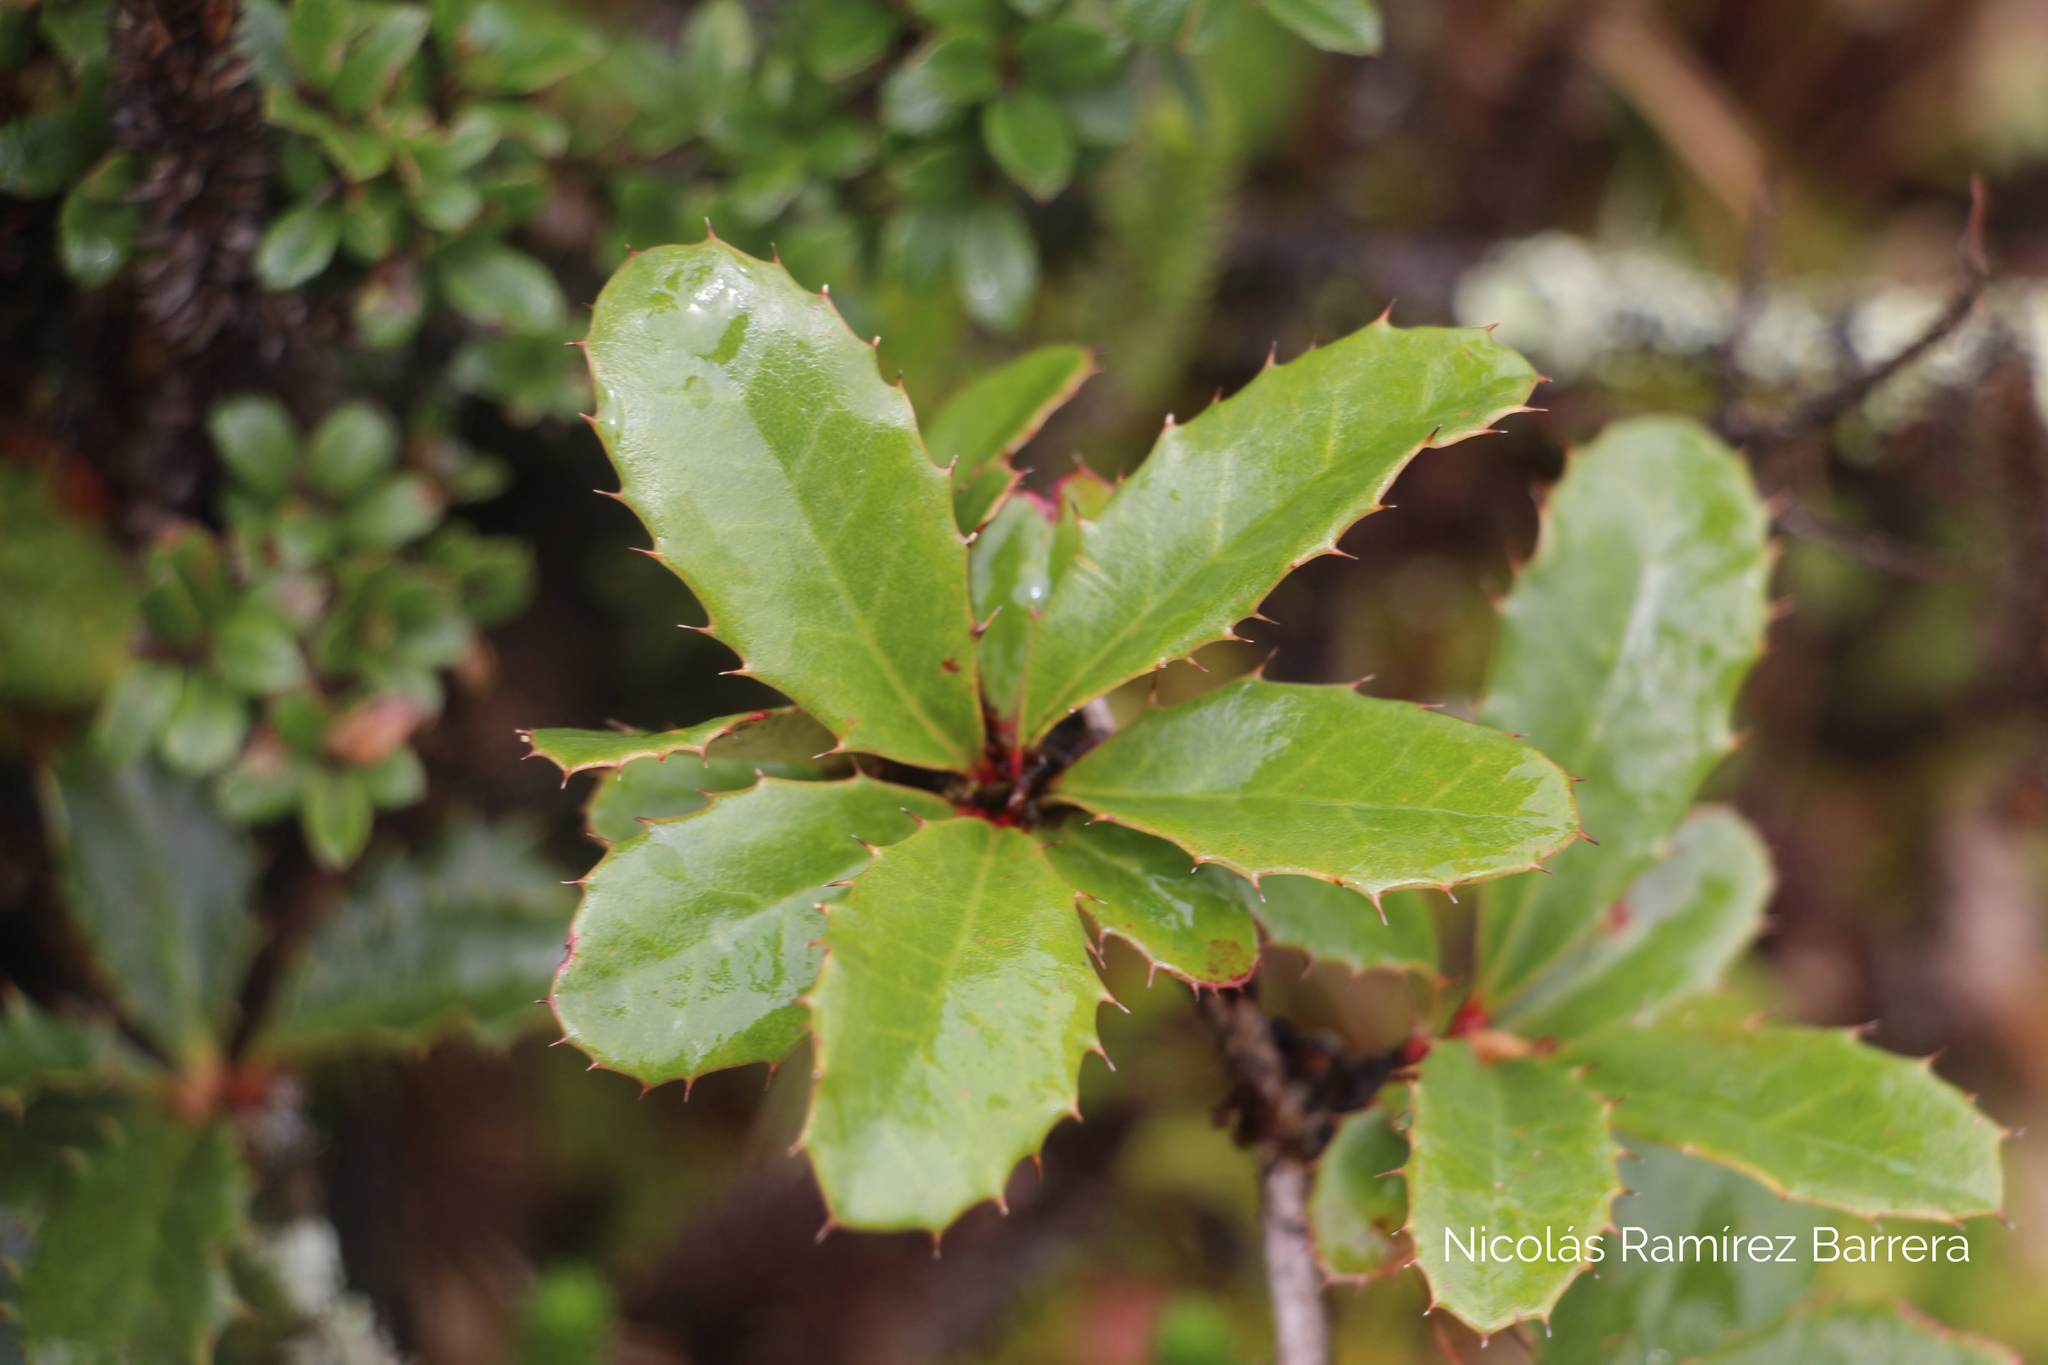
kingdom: Plantae
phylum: Tracheophyta
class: Magnoliopsida
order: Ranunculales
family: Berberidaceae
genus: Berberis
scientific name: Berberis goudotii
